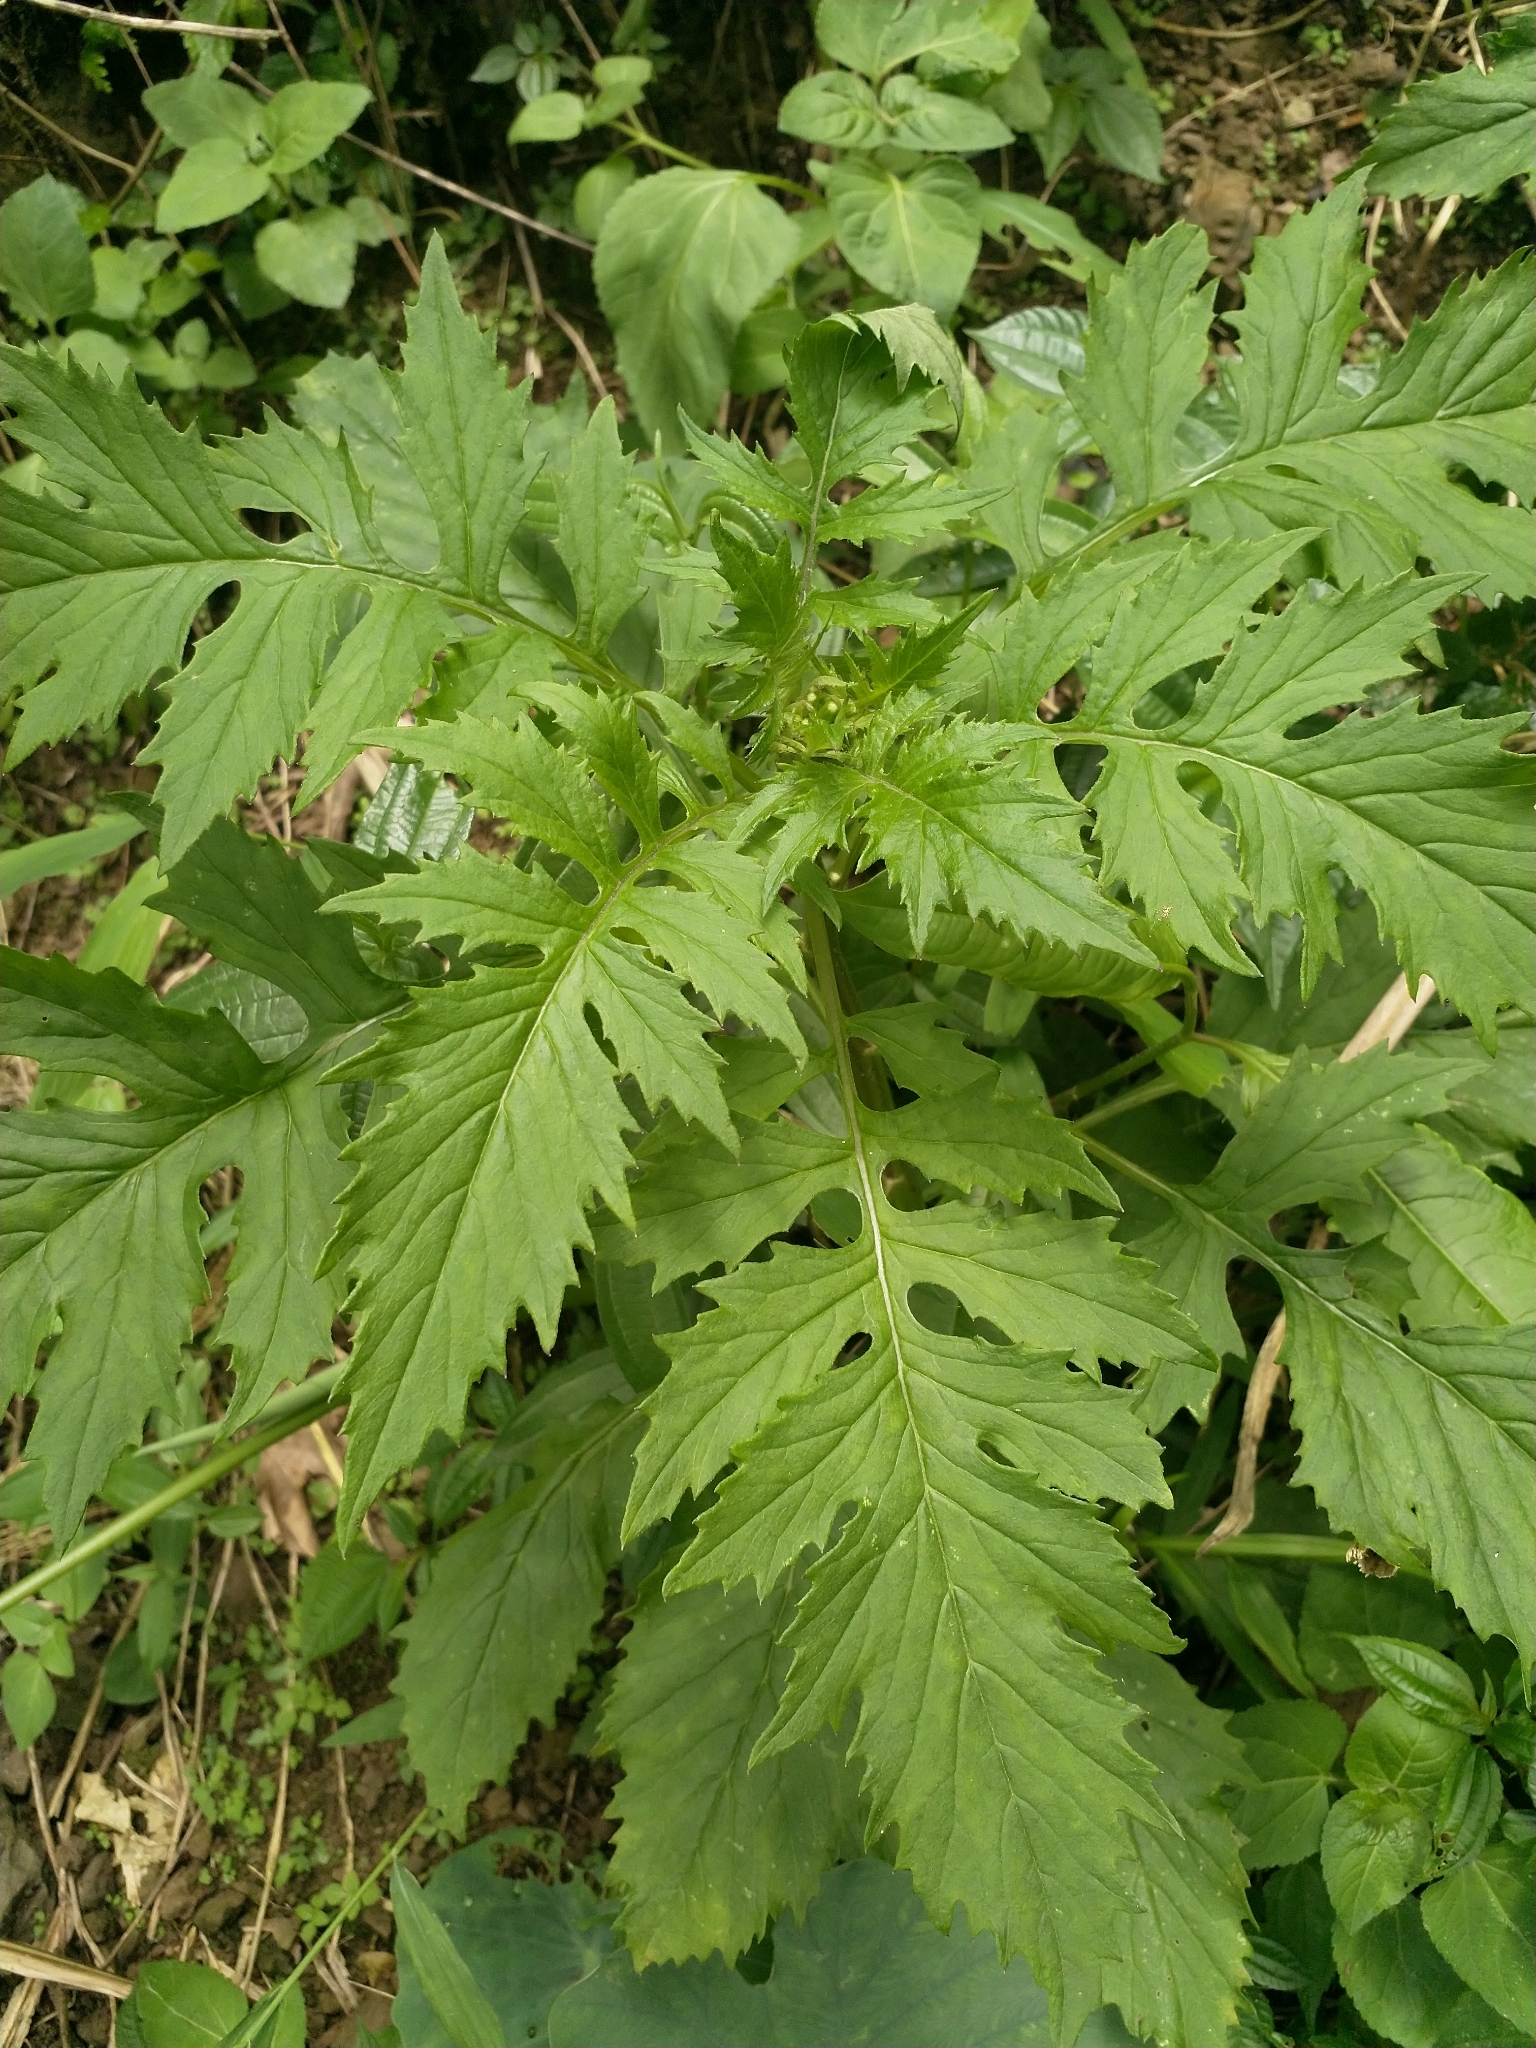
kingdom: Plantae
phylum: Tracheophyta
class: Magnoliopsida
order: Asterales
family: Asteraceae
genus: Erechtites
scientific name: Erechtites valerianifolius
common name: Tropical burnweed
